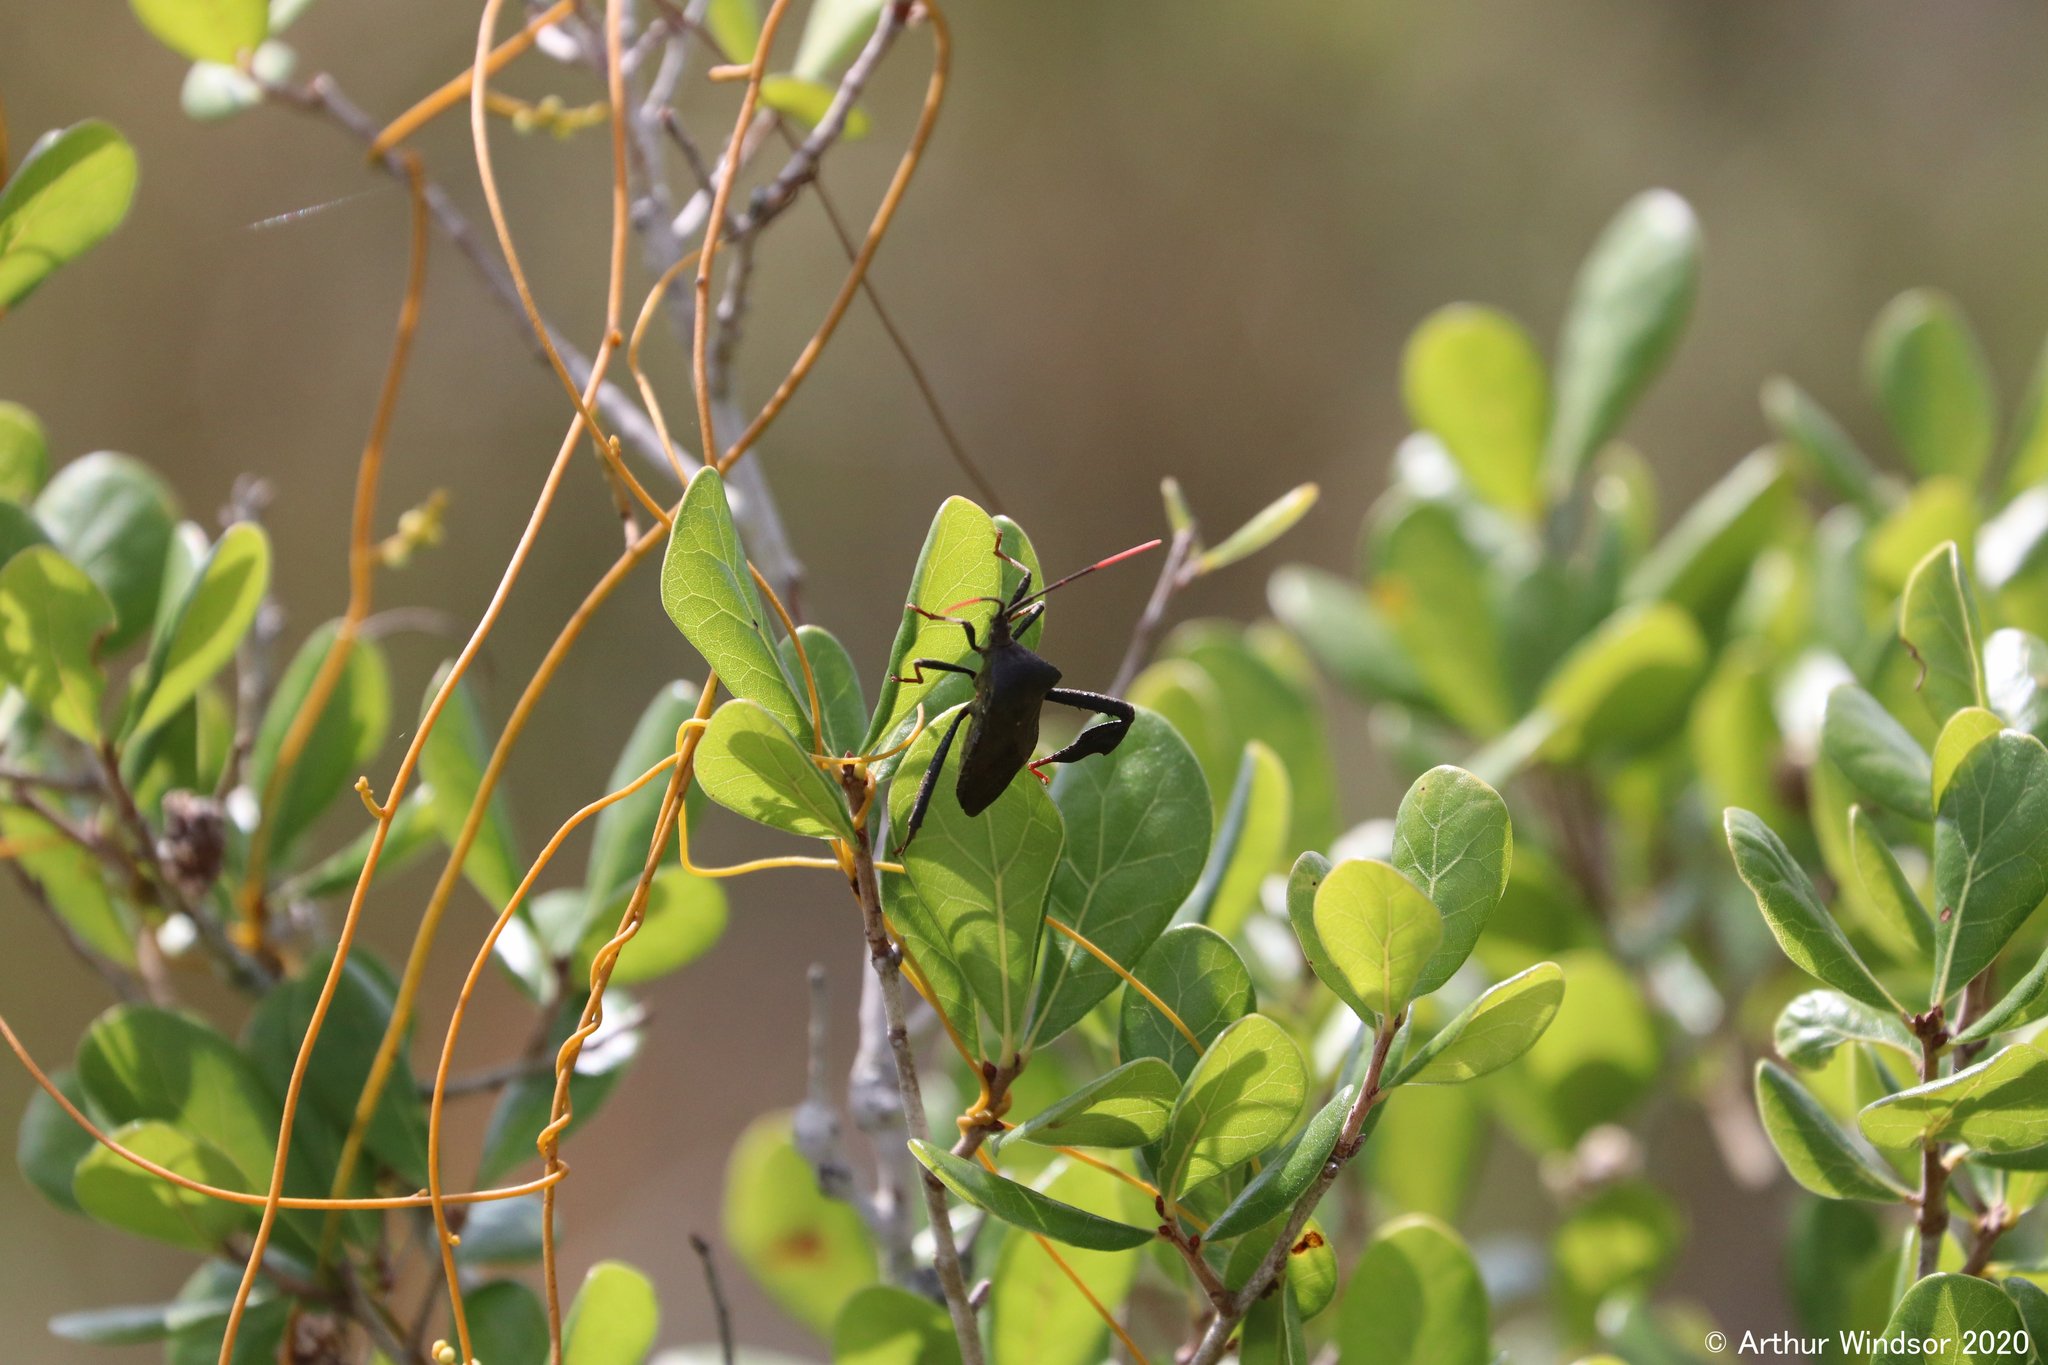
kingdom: Animalia
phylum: Arthropoda
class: Insecta
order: Hemiptera
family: Coreidae
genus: Acanthocephala
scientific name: Acanthocephala terminalis
